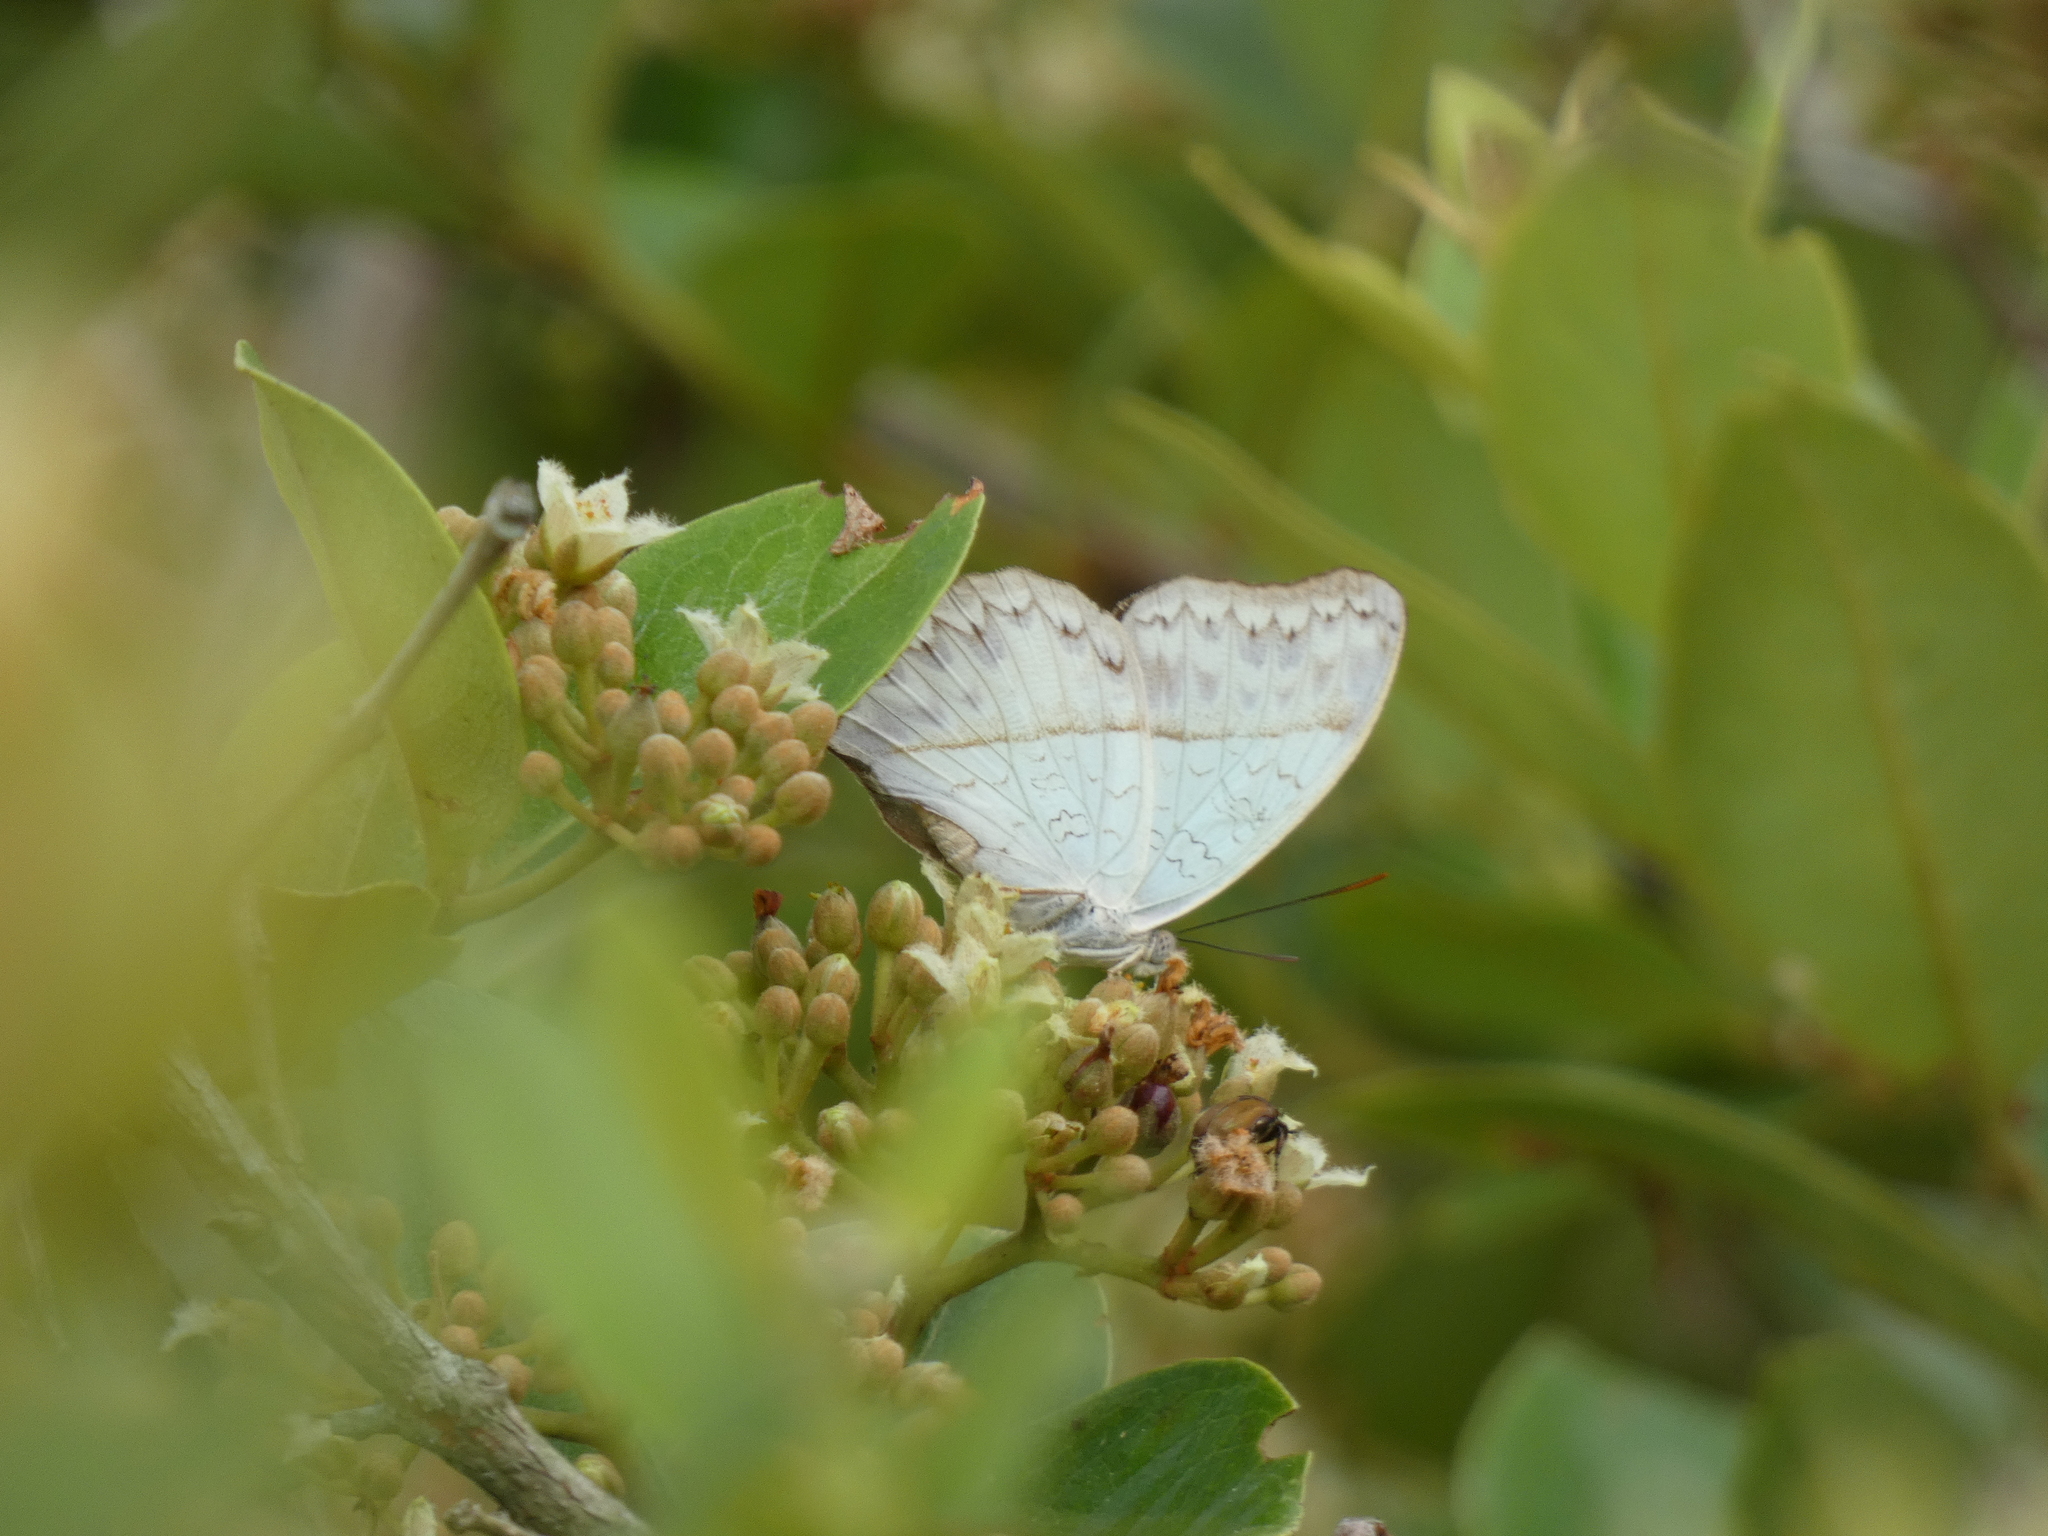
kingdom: Animalia
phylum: Arthropoda
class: Insecta
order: Lepidoptera
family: Nymphalidae
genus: Cymothoe
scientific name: Cymothoe caenis
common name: Common glider
